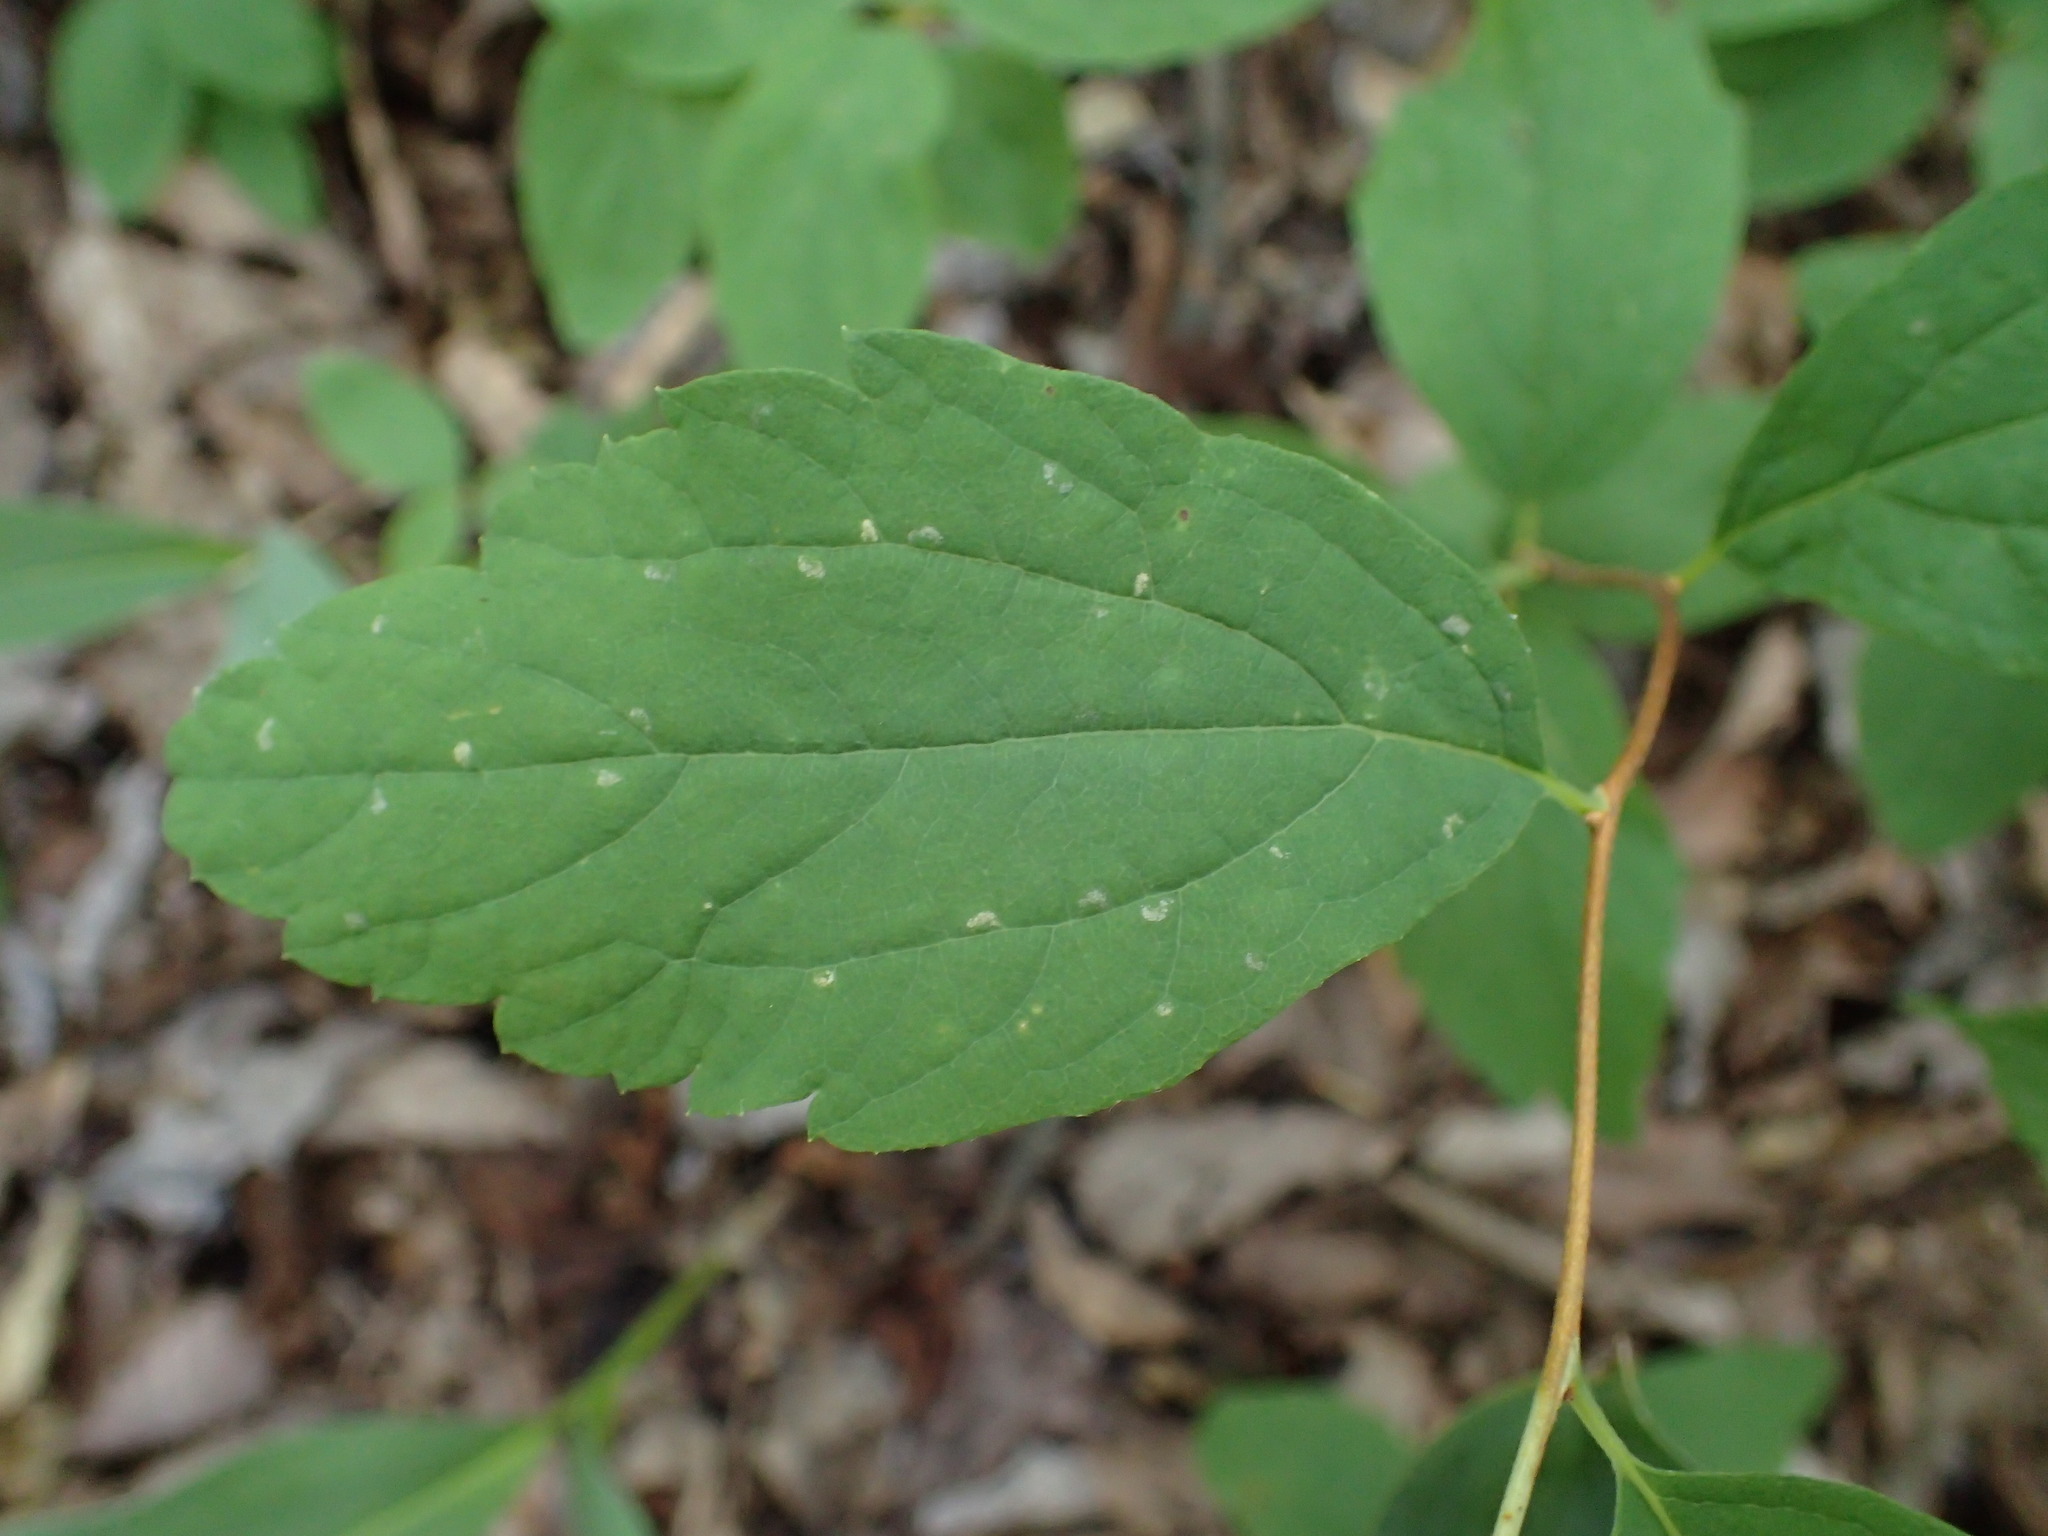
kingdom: Plantae
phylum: Tracheophyta
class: Magnoliopsida
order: Rosales
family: Rosaceae
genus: Spiraea
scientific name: Spiraea corymbosa
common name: Corymbed meadowsweet
